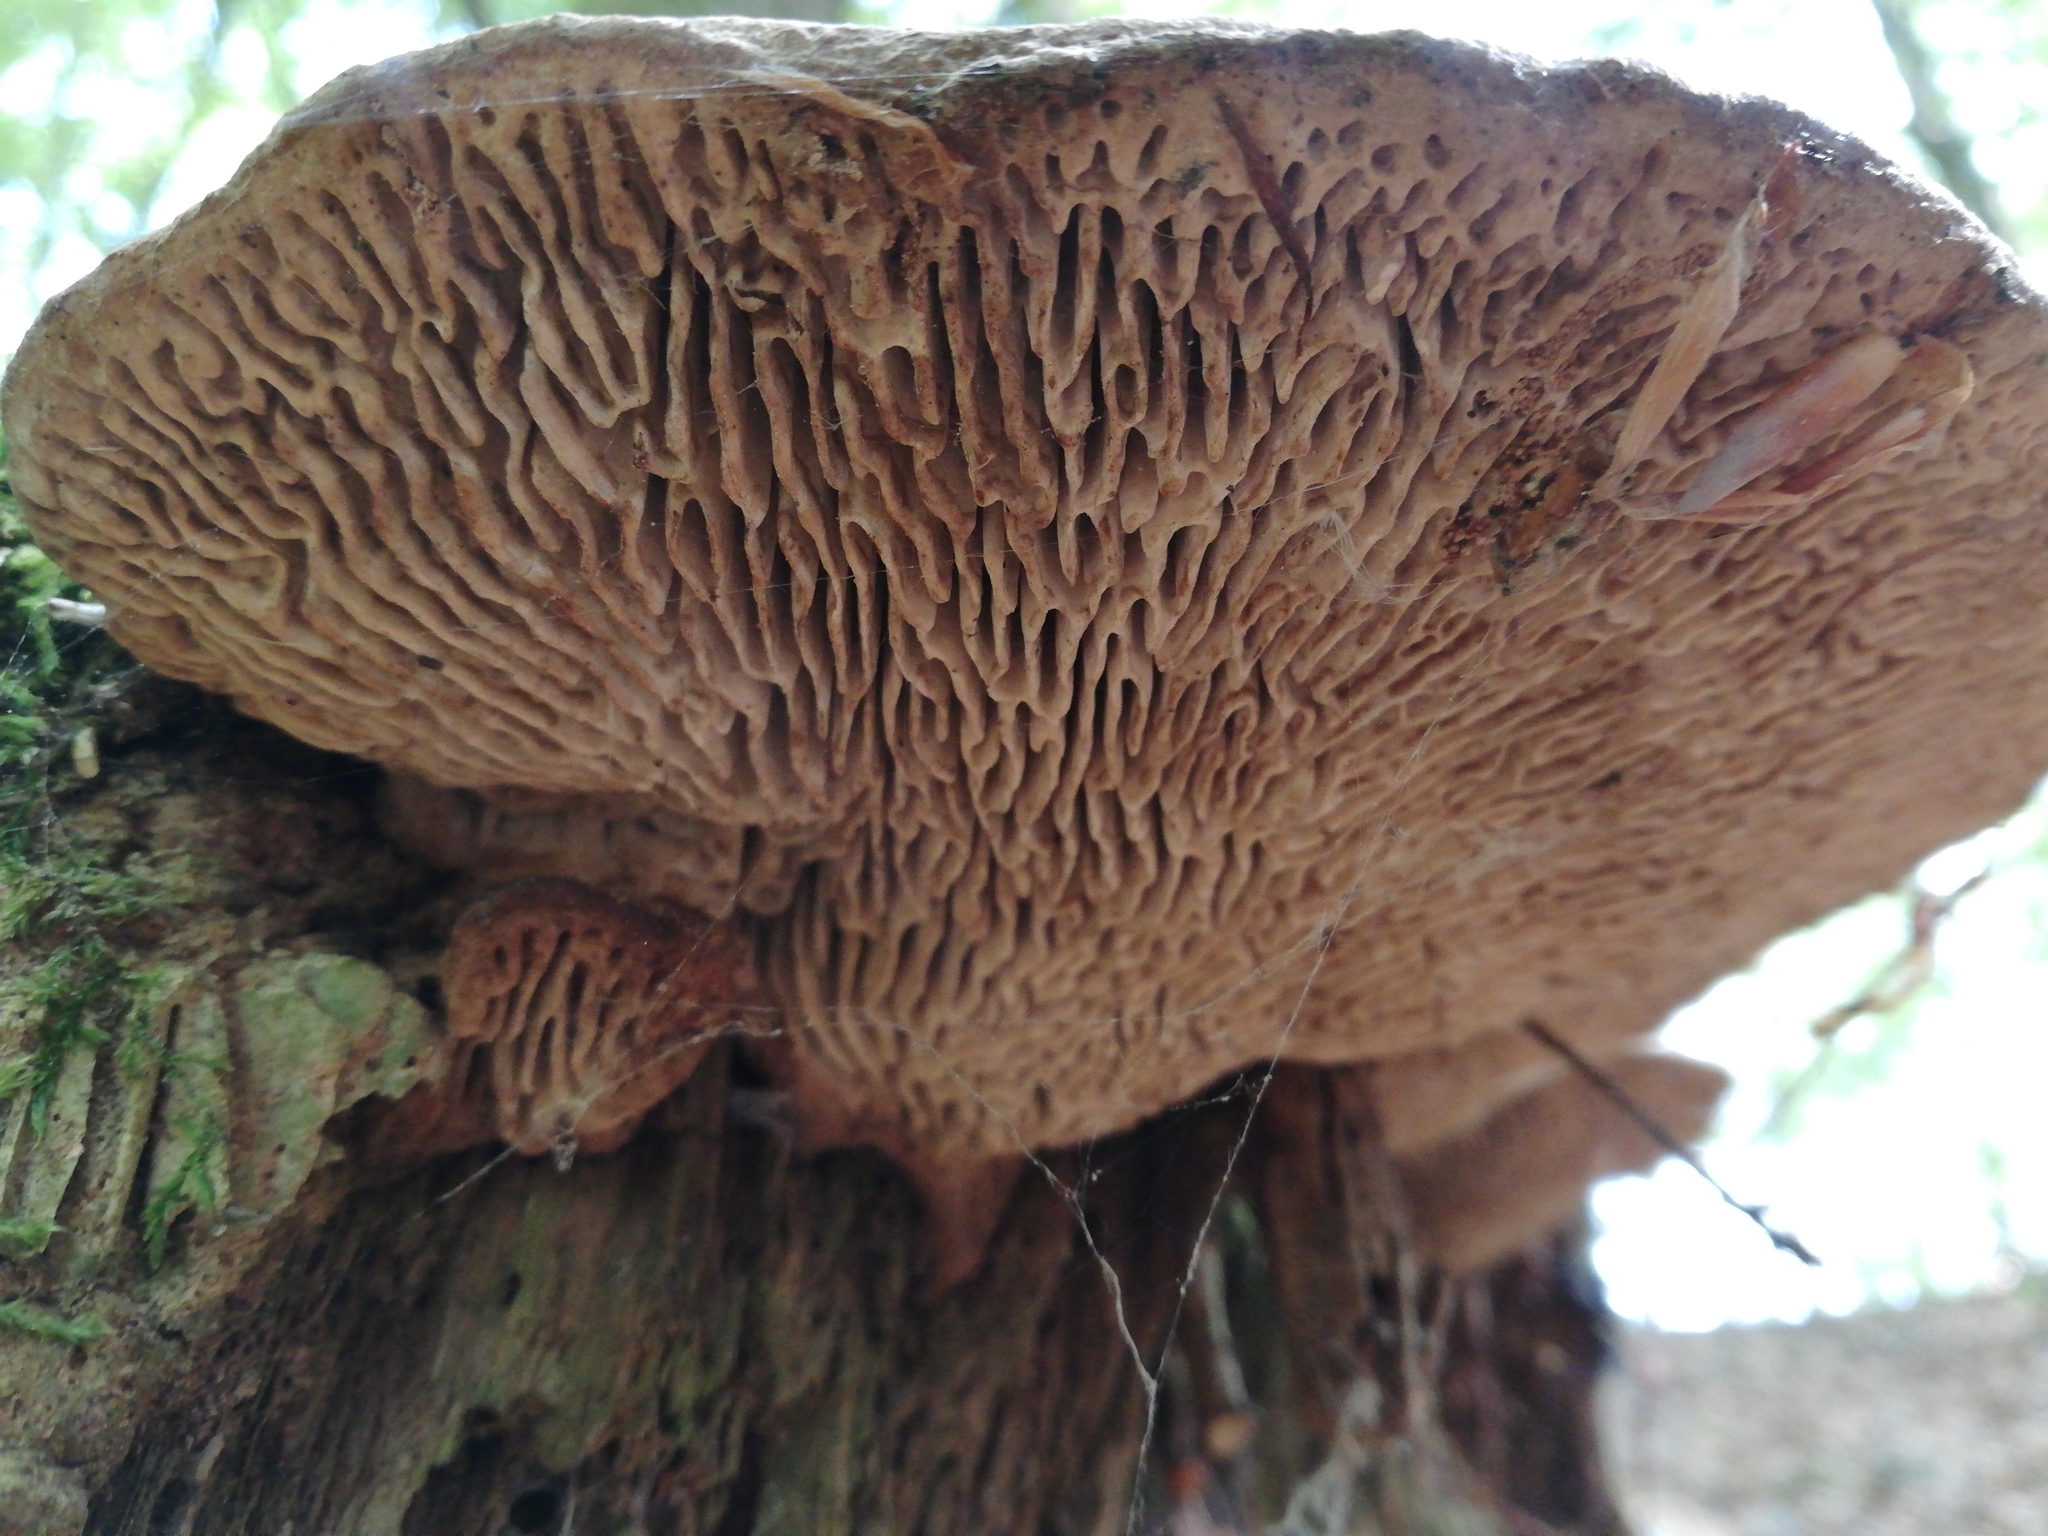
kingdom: Fungi
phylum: Basidiomycota
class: Agaricomycetes
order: Polyporales
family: Fomitopsidaceae
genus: Fomitopsis
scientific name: Fomitopsis
